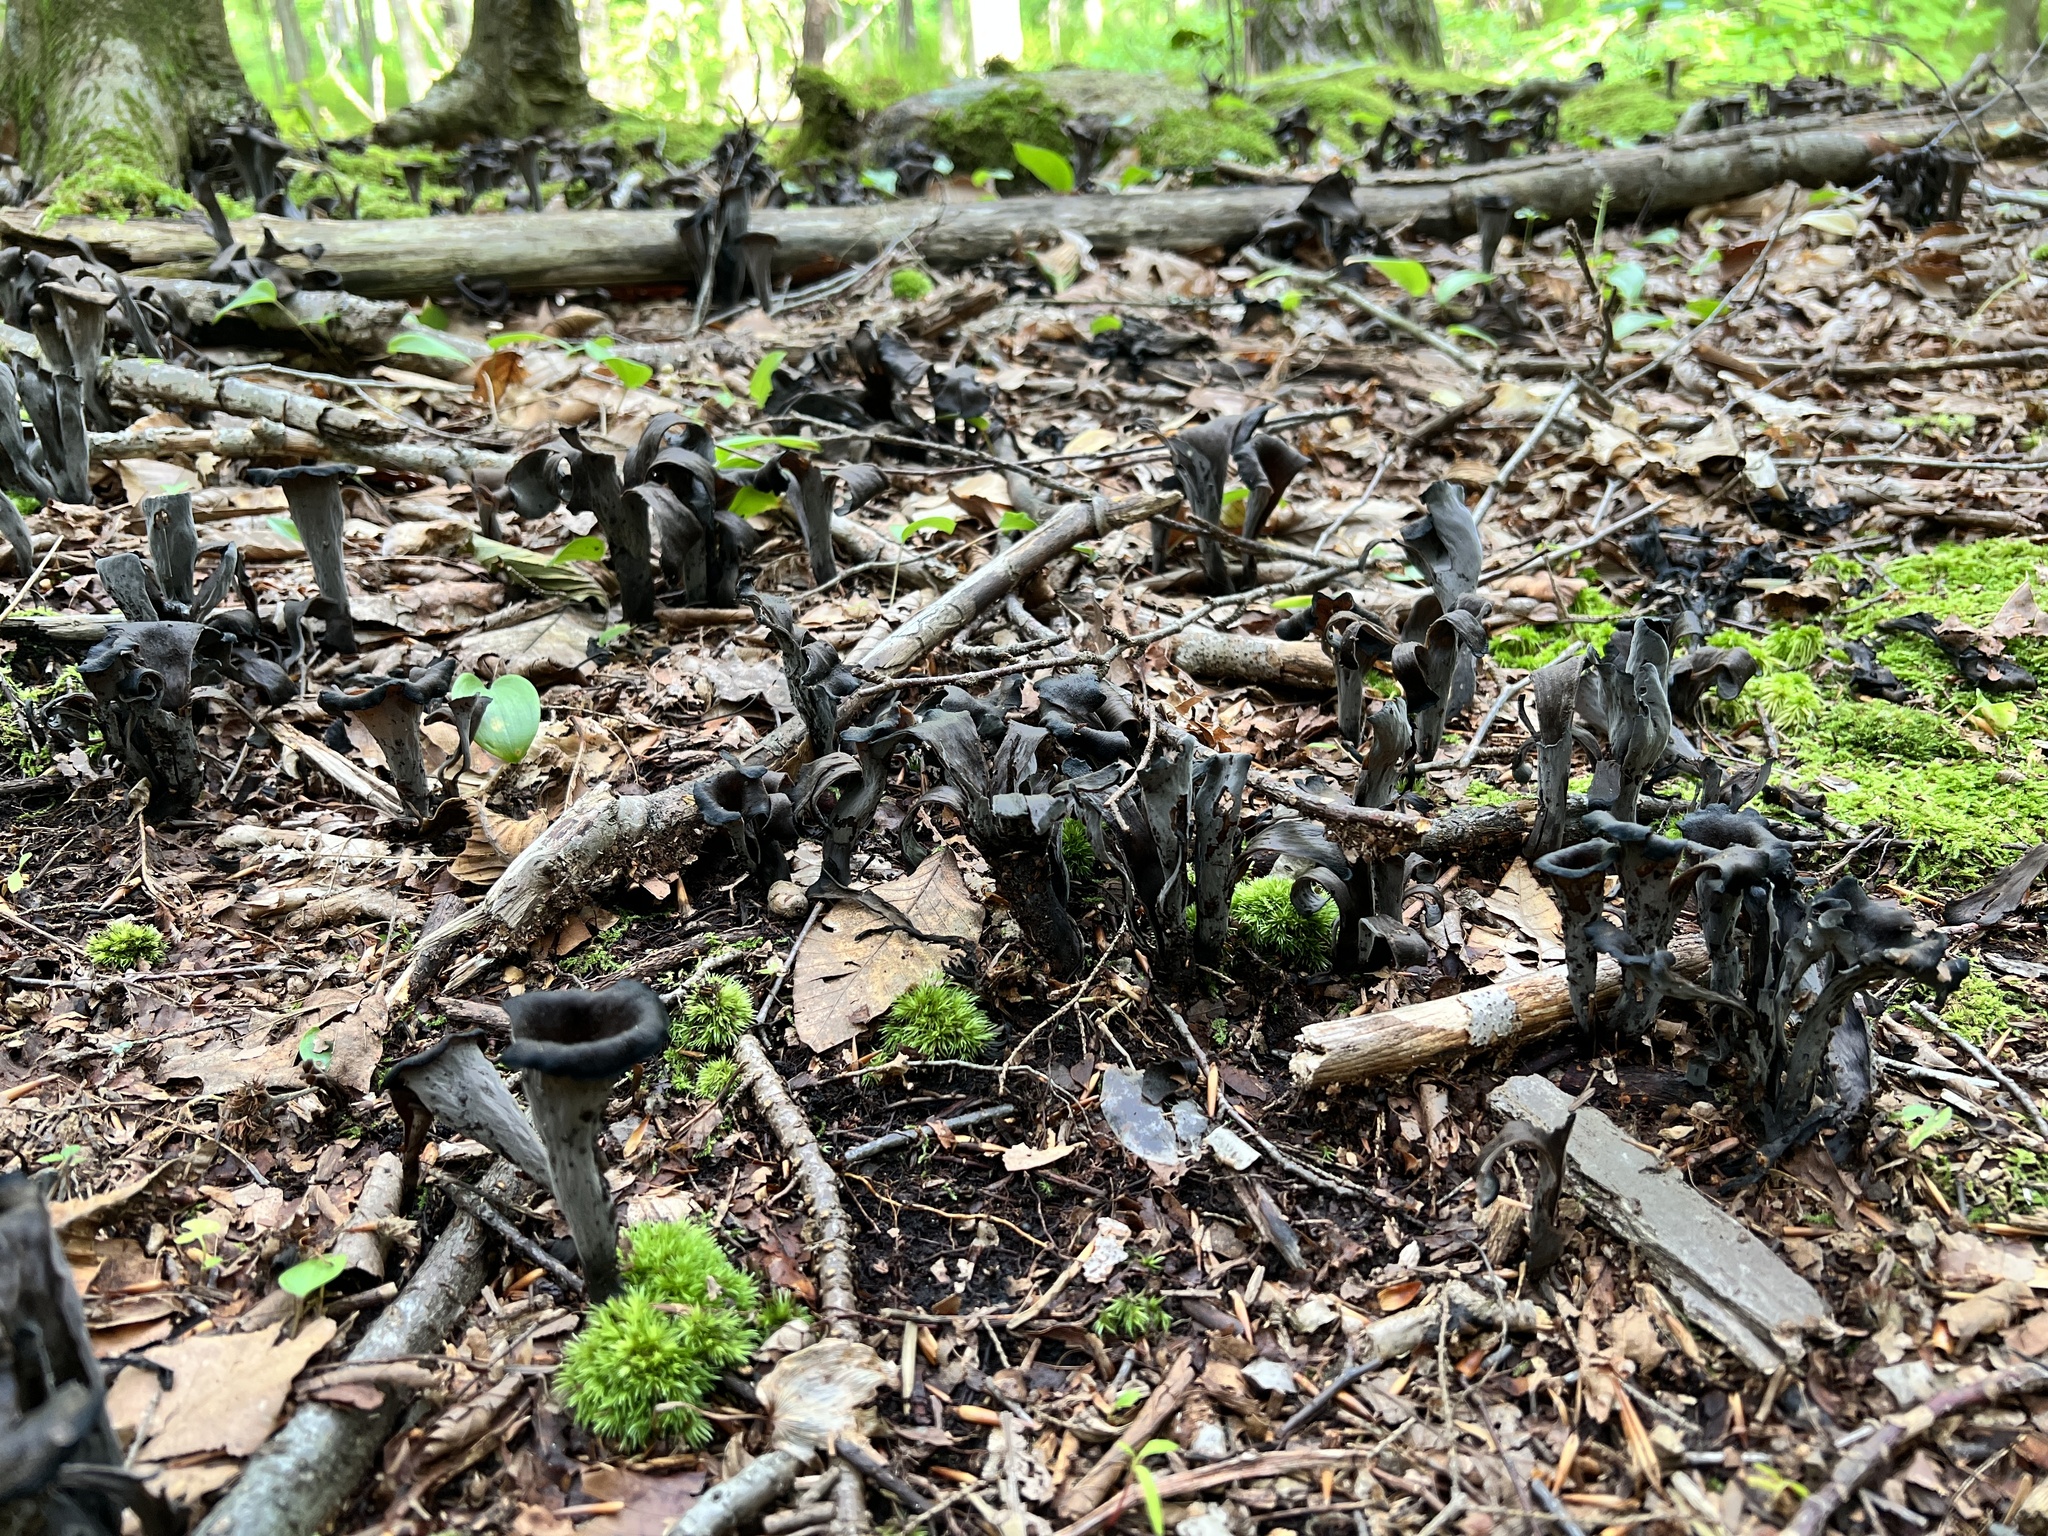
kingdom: Fungi
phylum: Basidiomycota
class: Agaricomycetes
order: Cantharellales
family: Hydnaceae
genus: Craterellus
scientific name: Craterellus cornucopioides
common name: Horn of plenty
